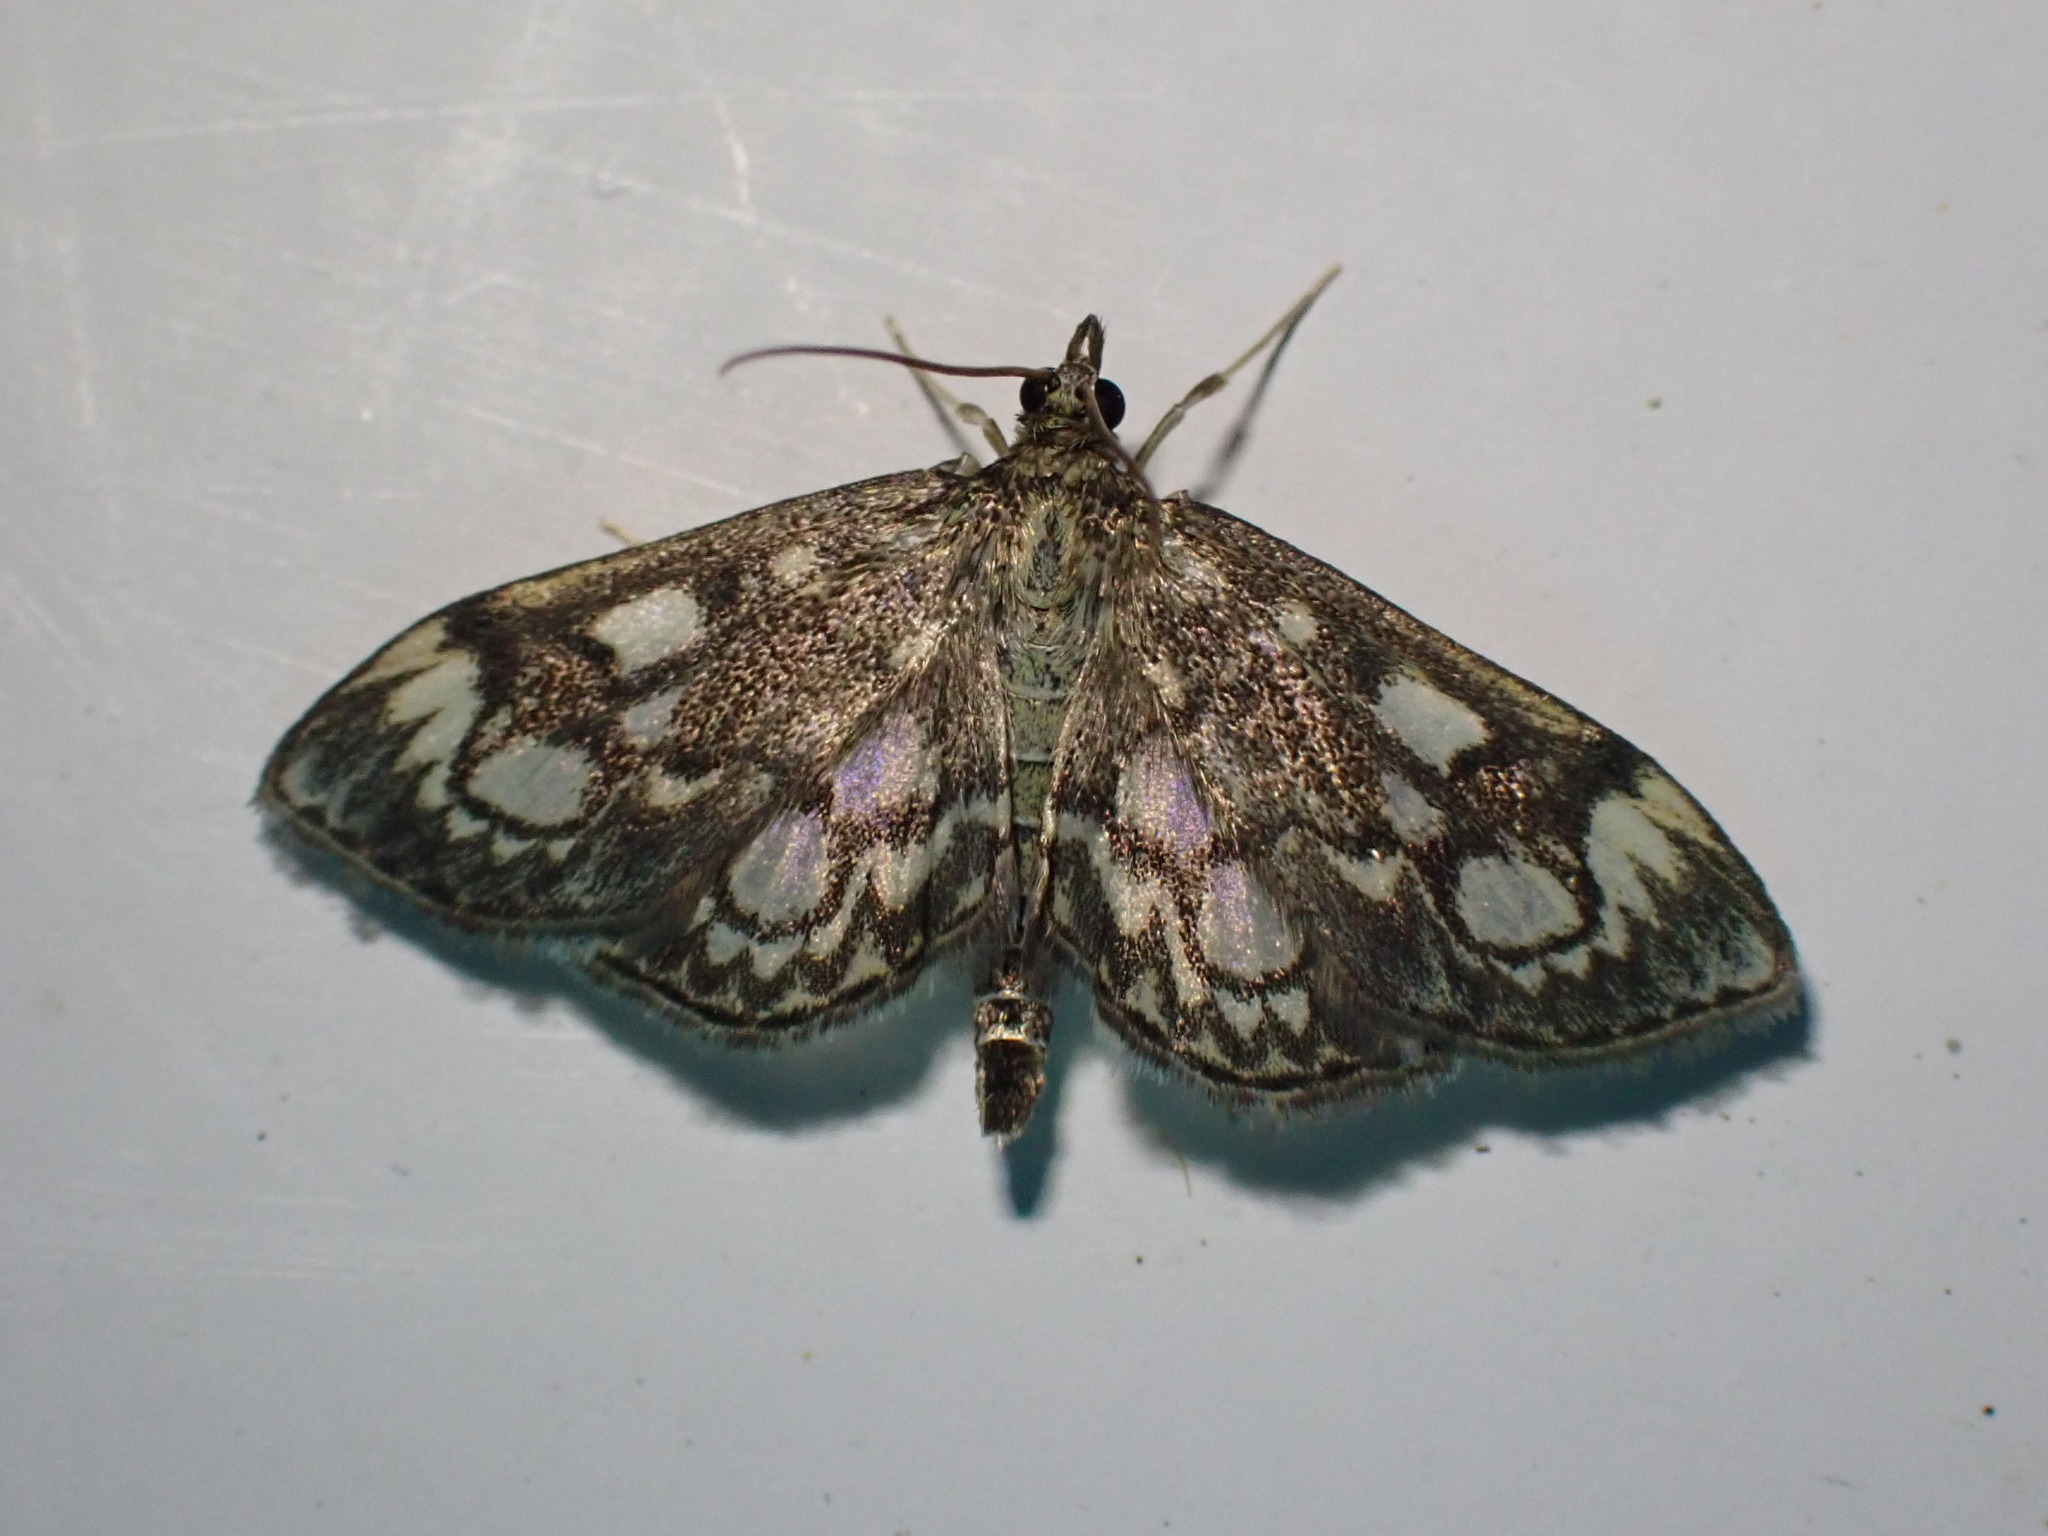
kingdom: Animalia
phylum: Arthropoda
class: Insecta
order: Lepidoptera
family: Crambidae
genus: Anania
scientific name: Anania coronata
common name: Elder pearl
